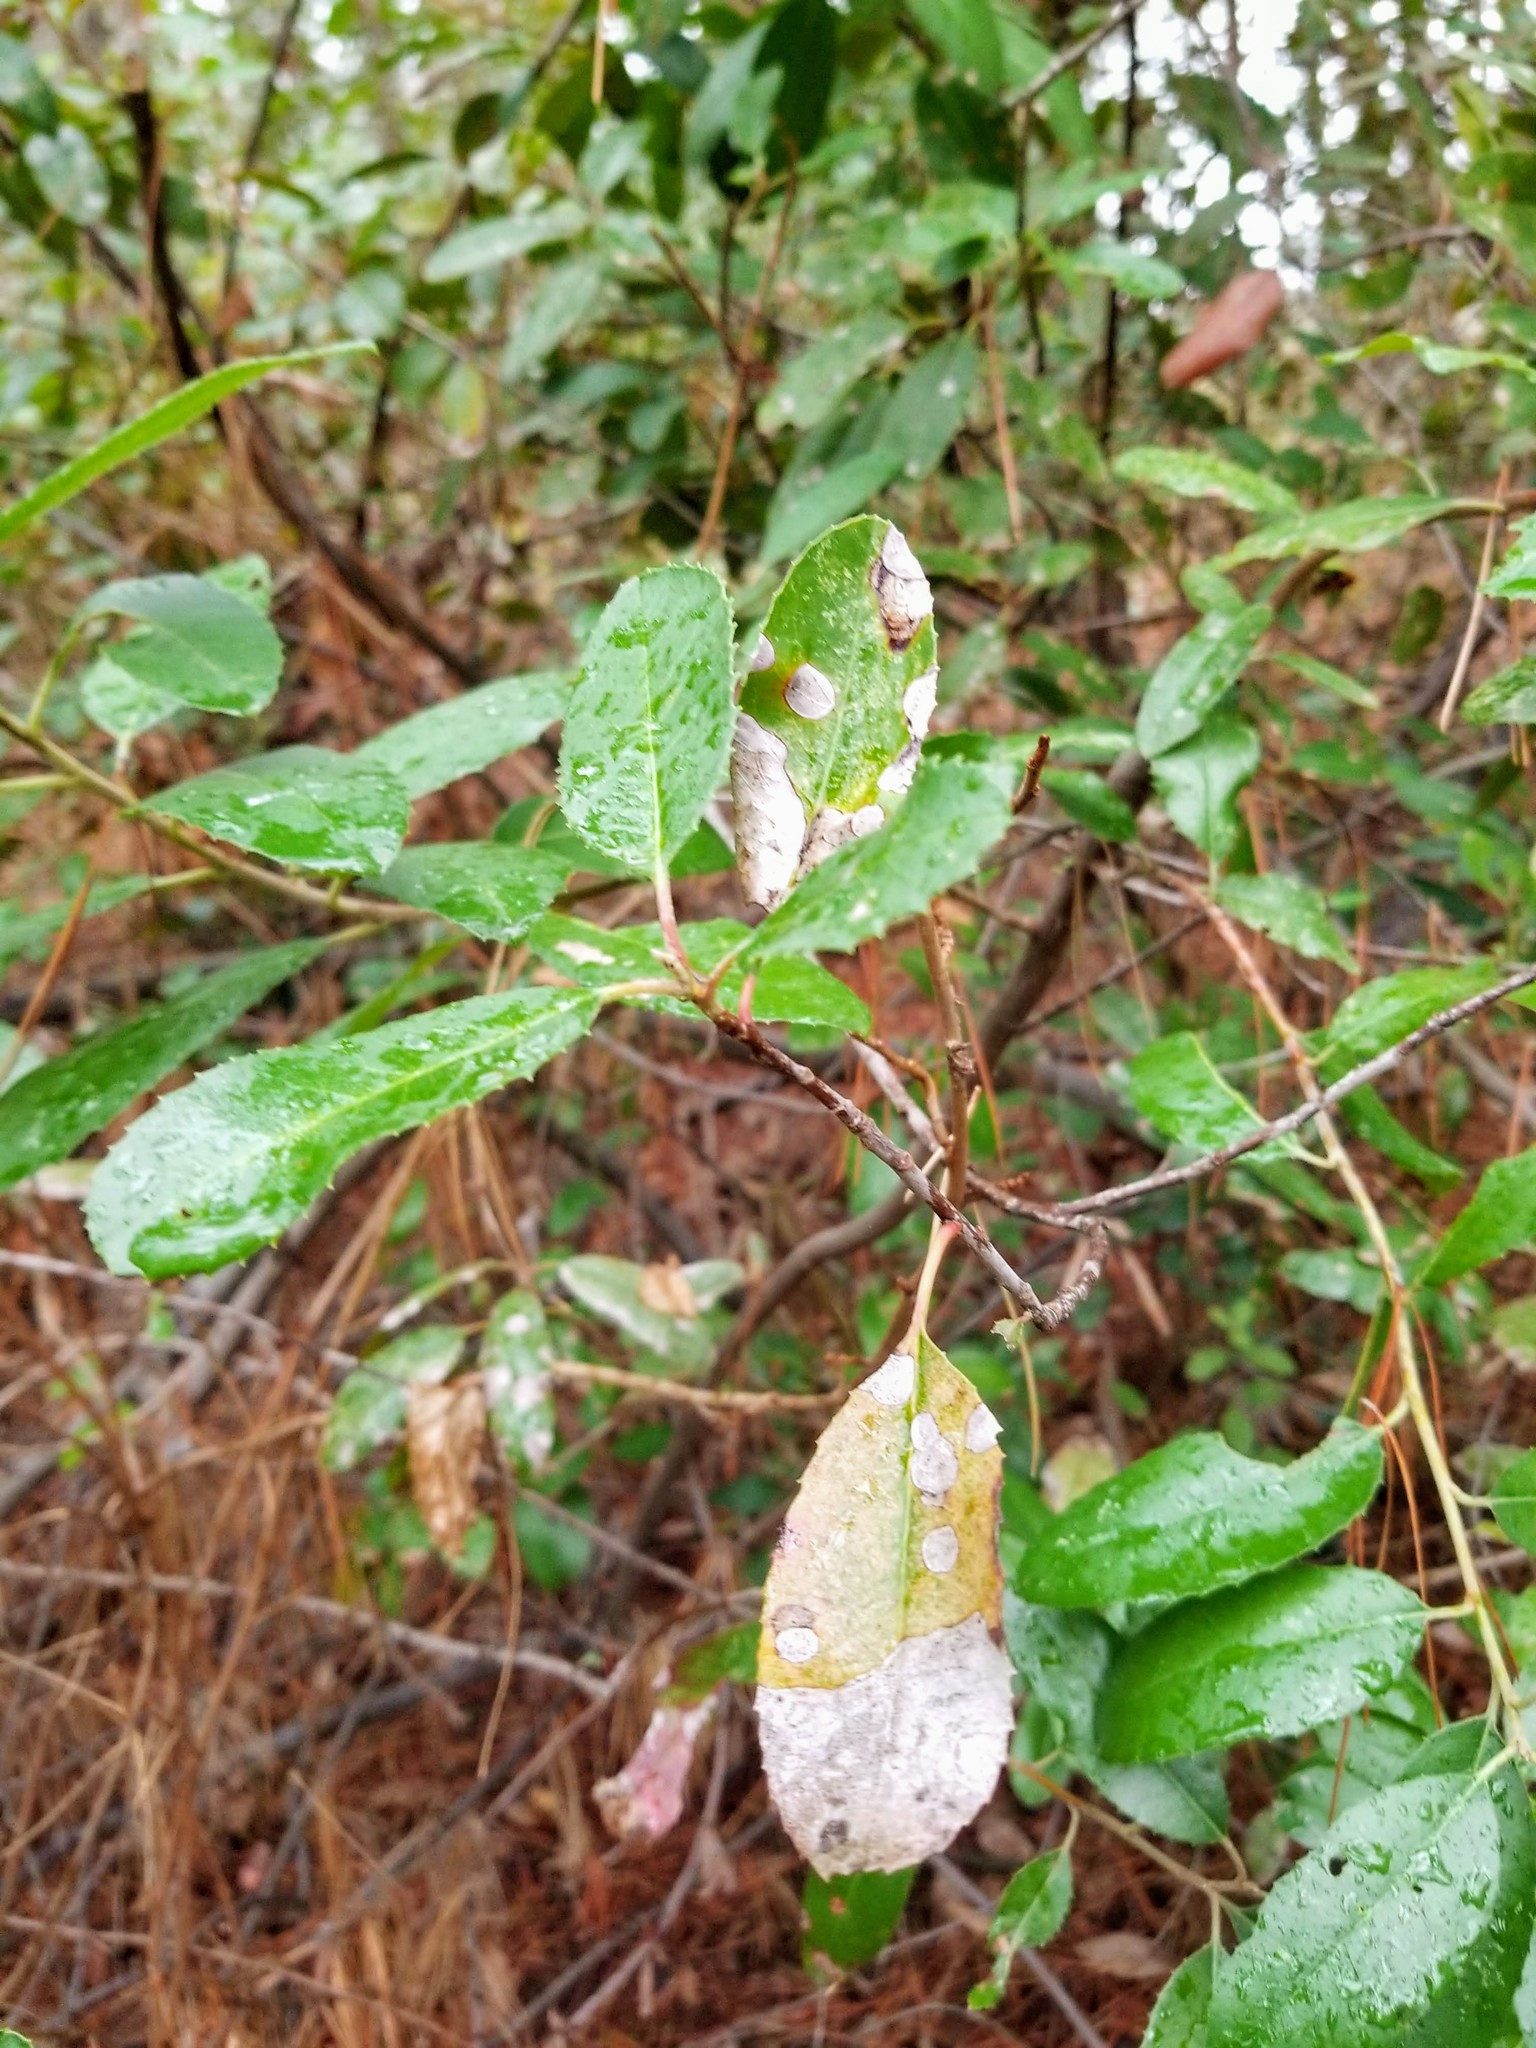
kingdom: Plantae
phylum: Tracheophyta
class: Magnoliopsida
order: Rosales
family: Rosaceae
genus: Heteromeles
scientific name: Heteromeles arbutifolia
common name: California-holly
